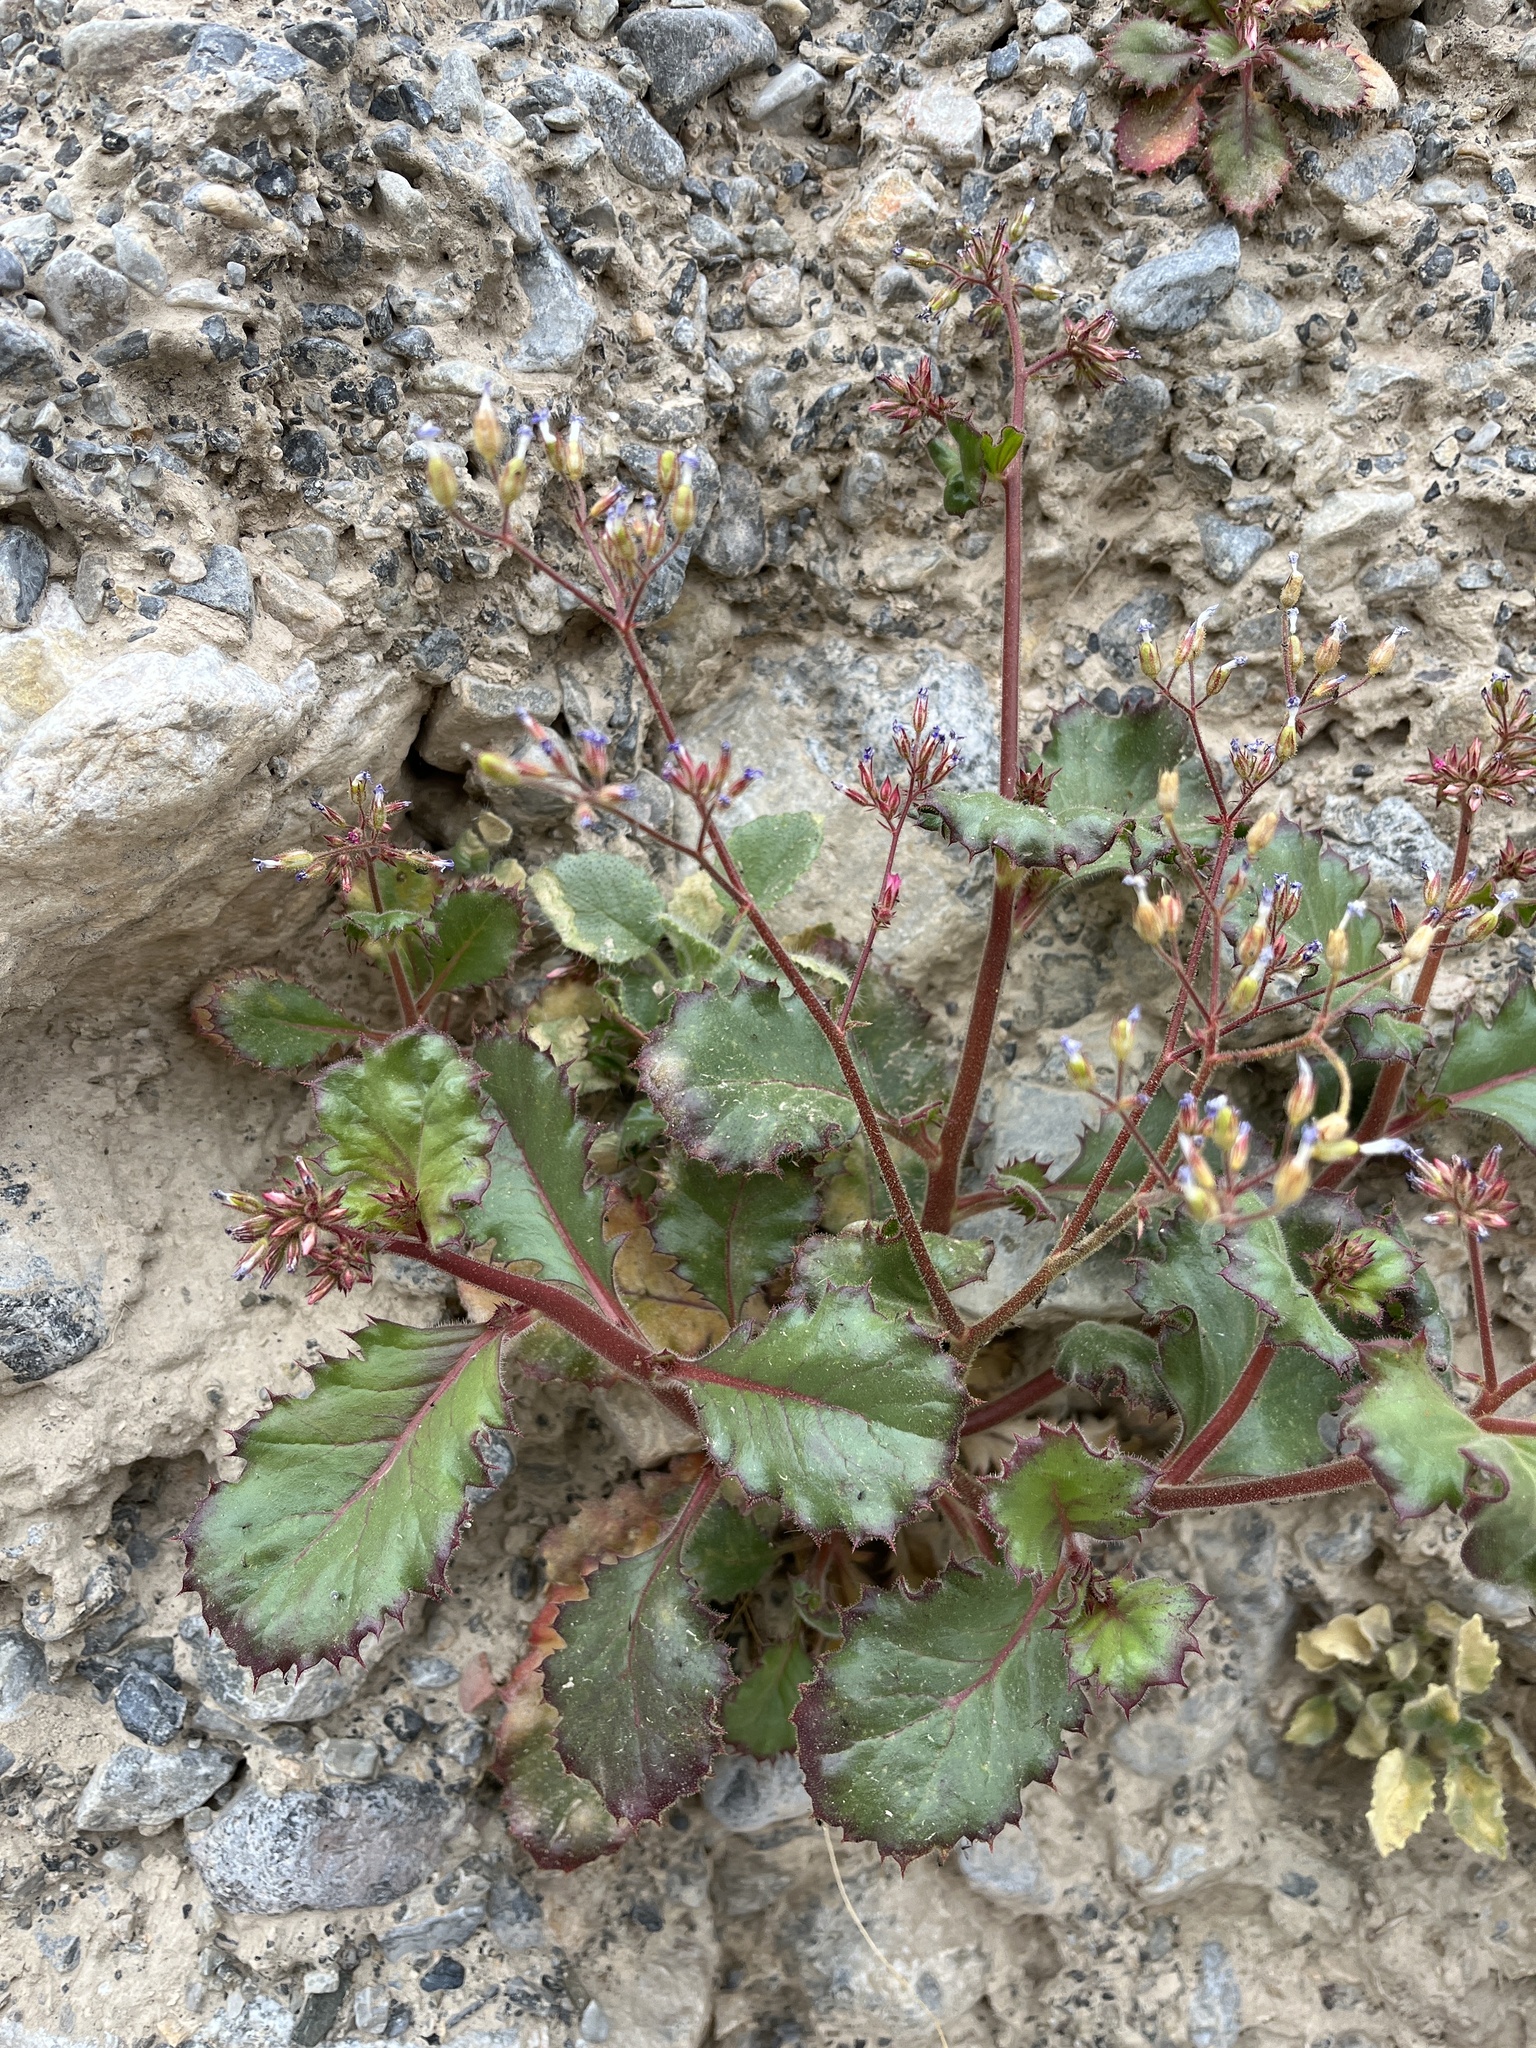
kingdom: Plantae
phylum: Tracheophyta
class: Magnoliopsida
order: Ericales
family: Polemoniaceae
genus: Aliciella
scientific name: Aliciella latifolia
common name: Broad-leaf gilia
